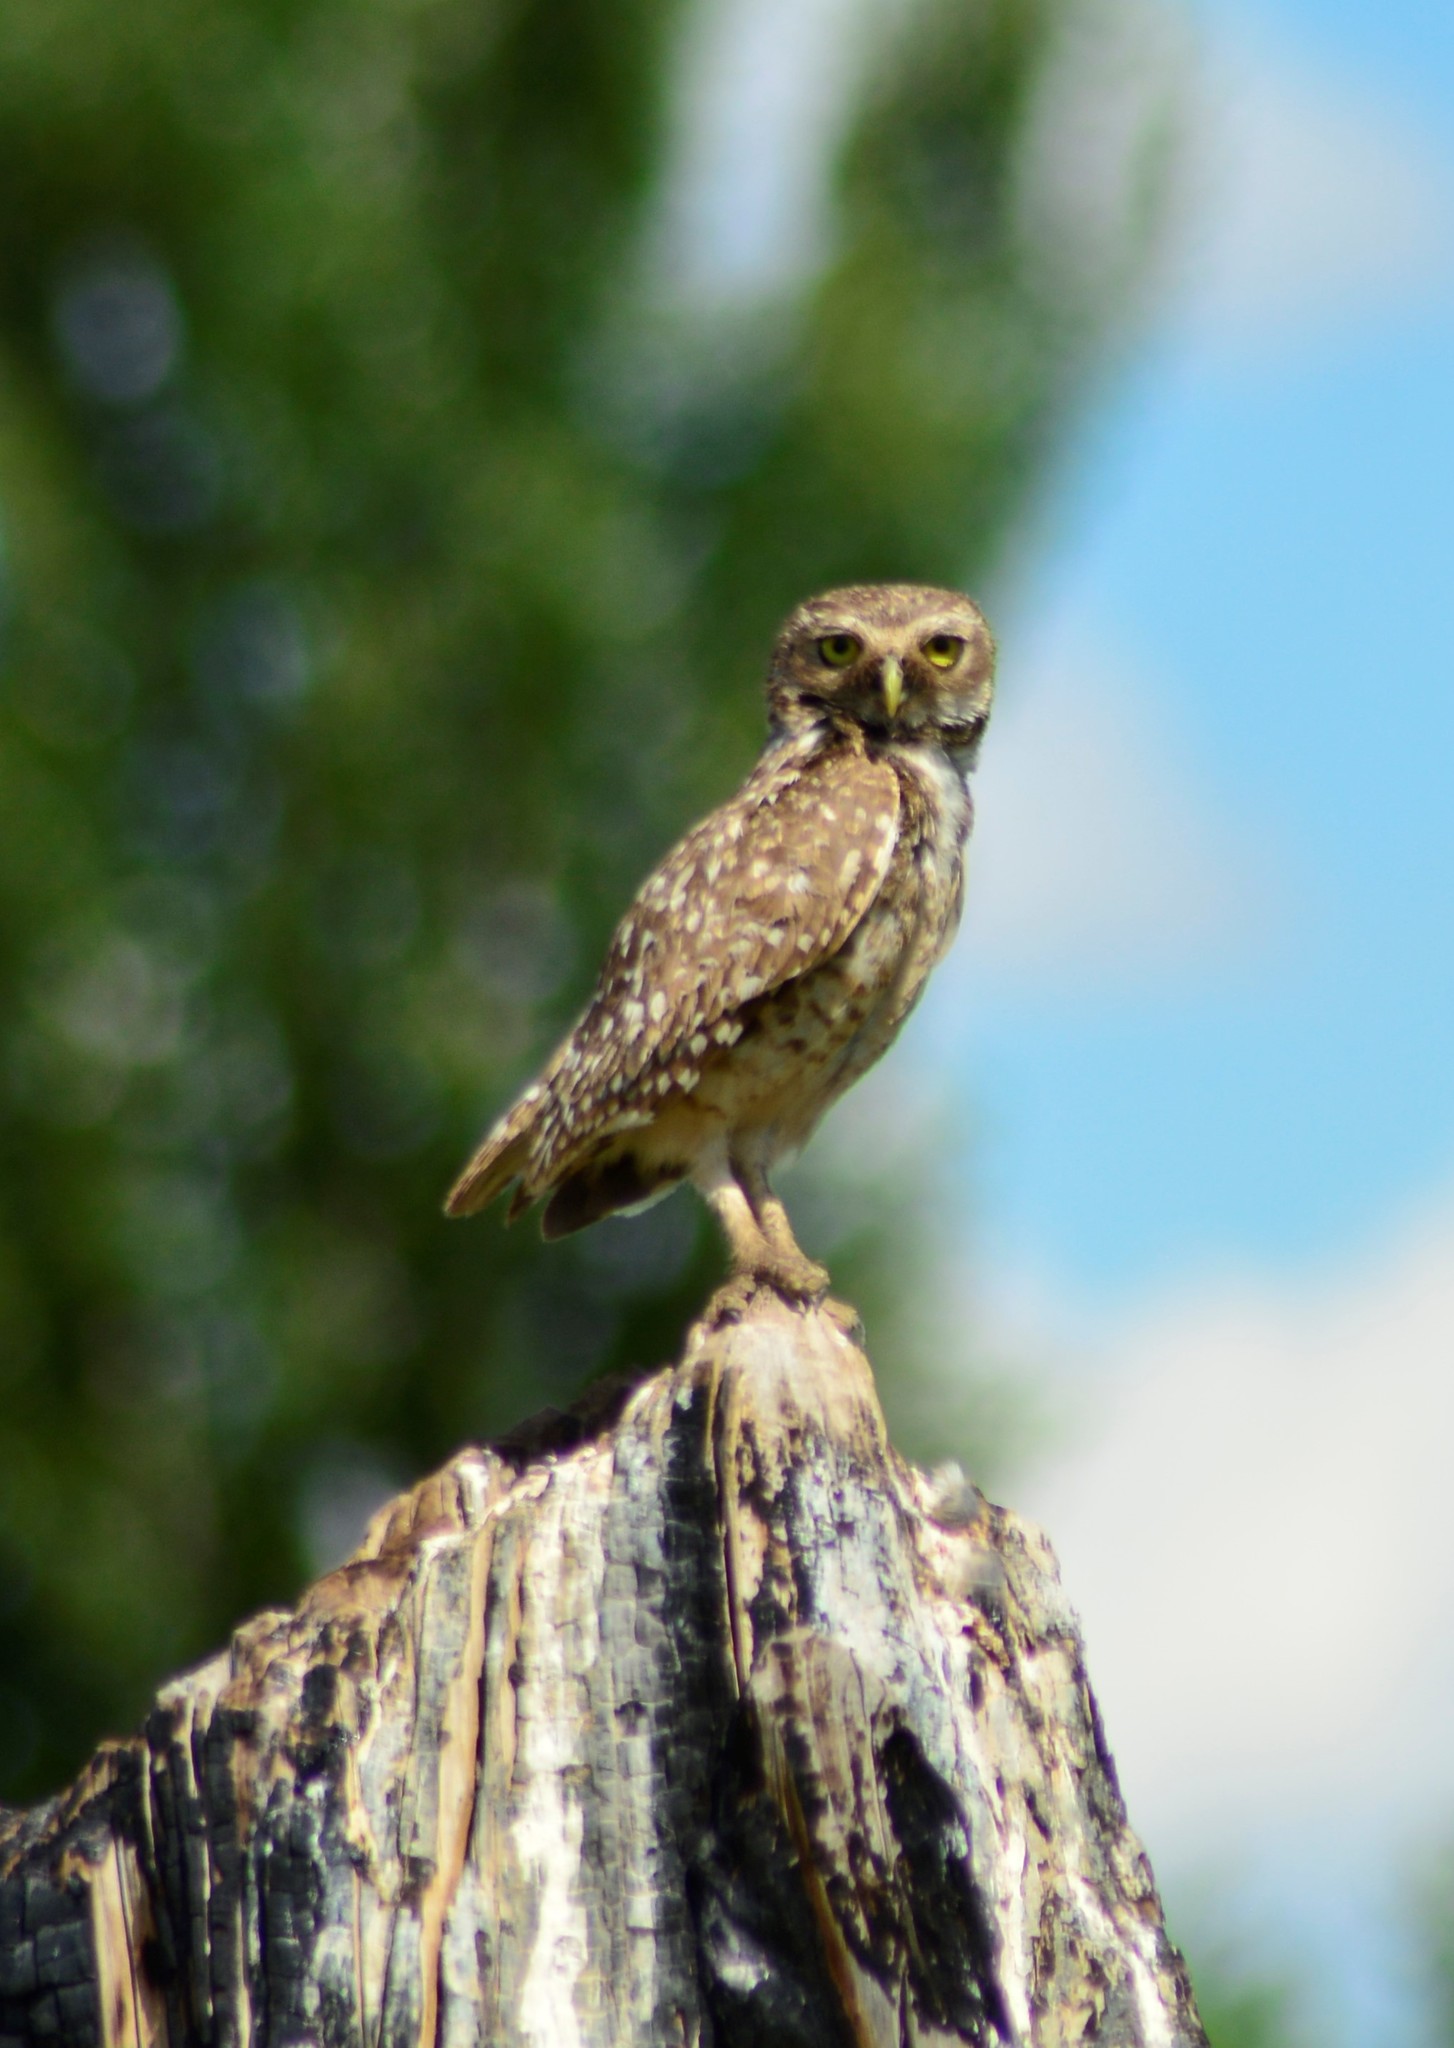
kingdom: Animalia
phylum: Chordata
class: Aves
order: Strigiformes
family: Strigidae
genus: Athene
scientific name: Athene cunicularia
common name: Burrowing owl
